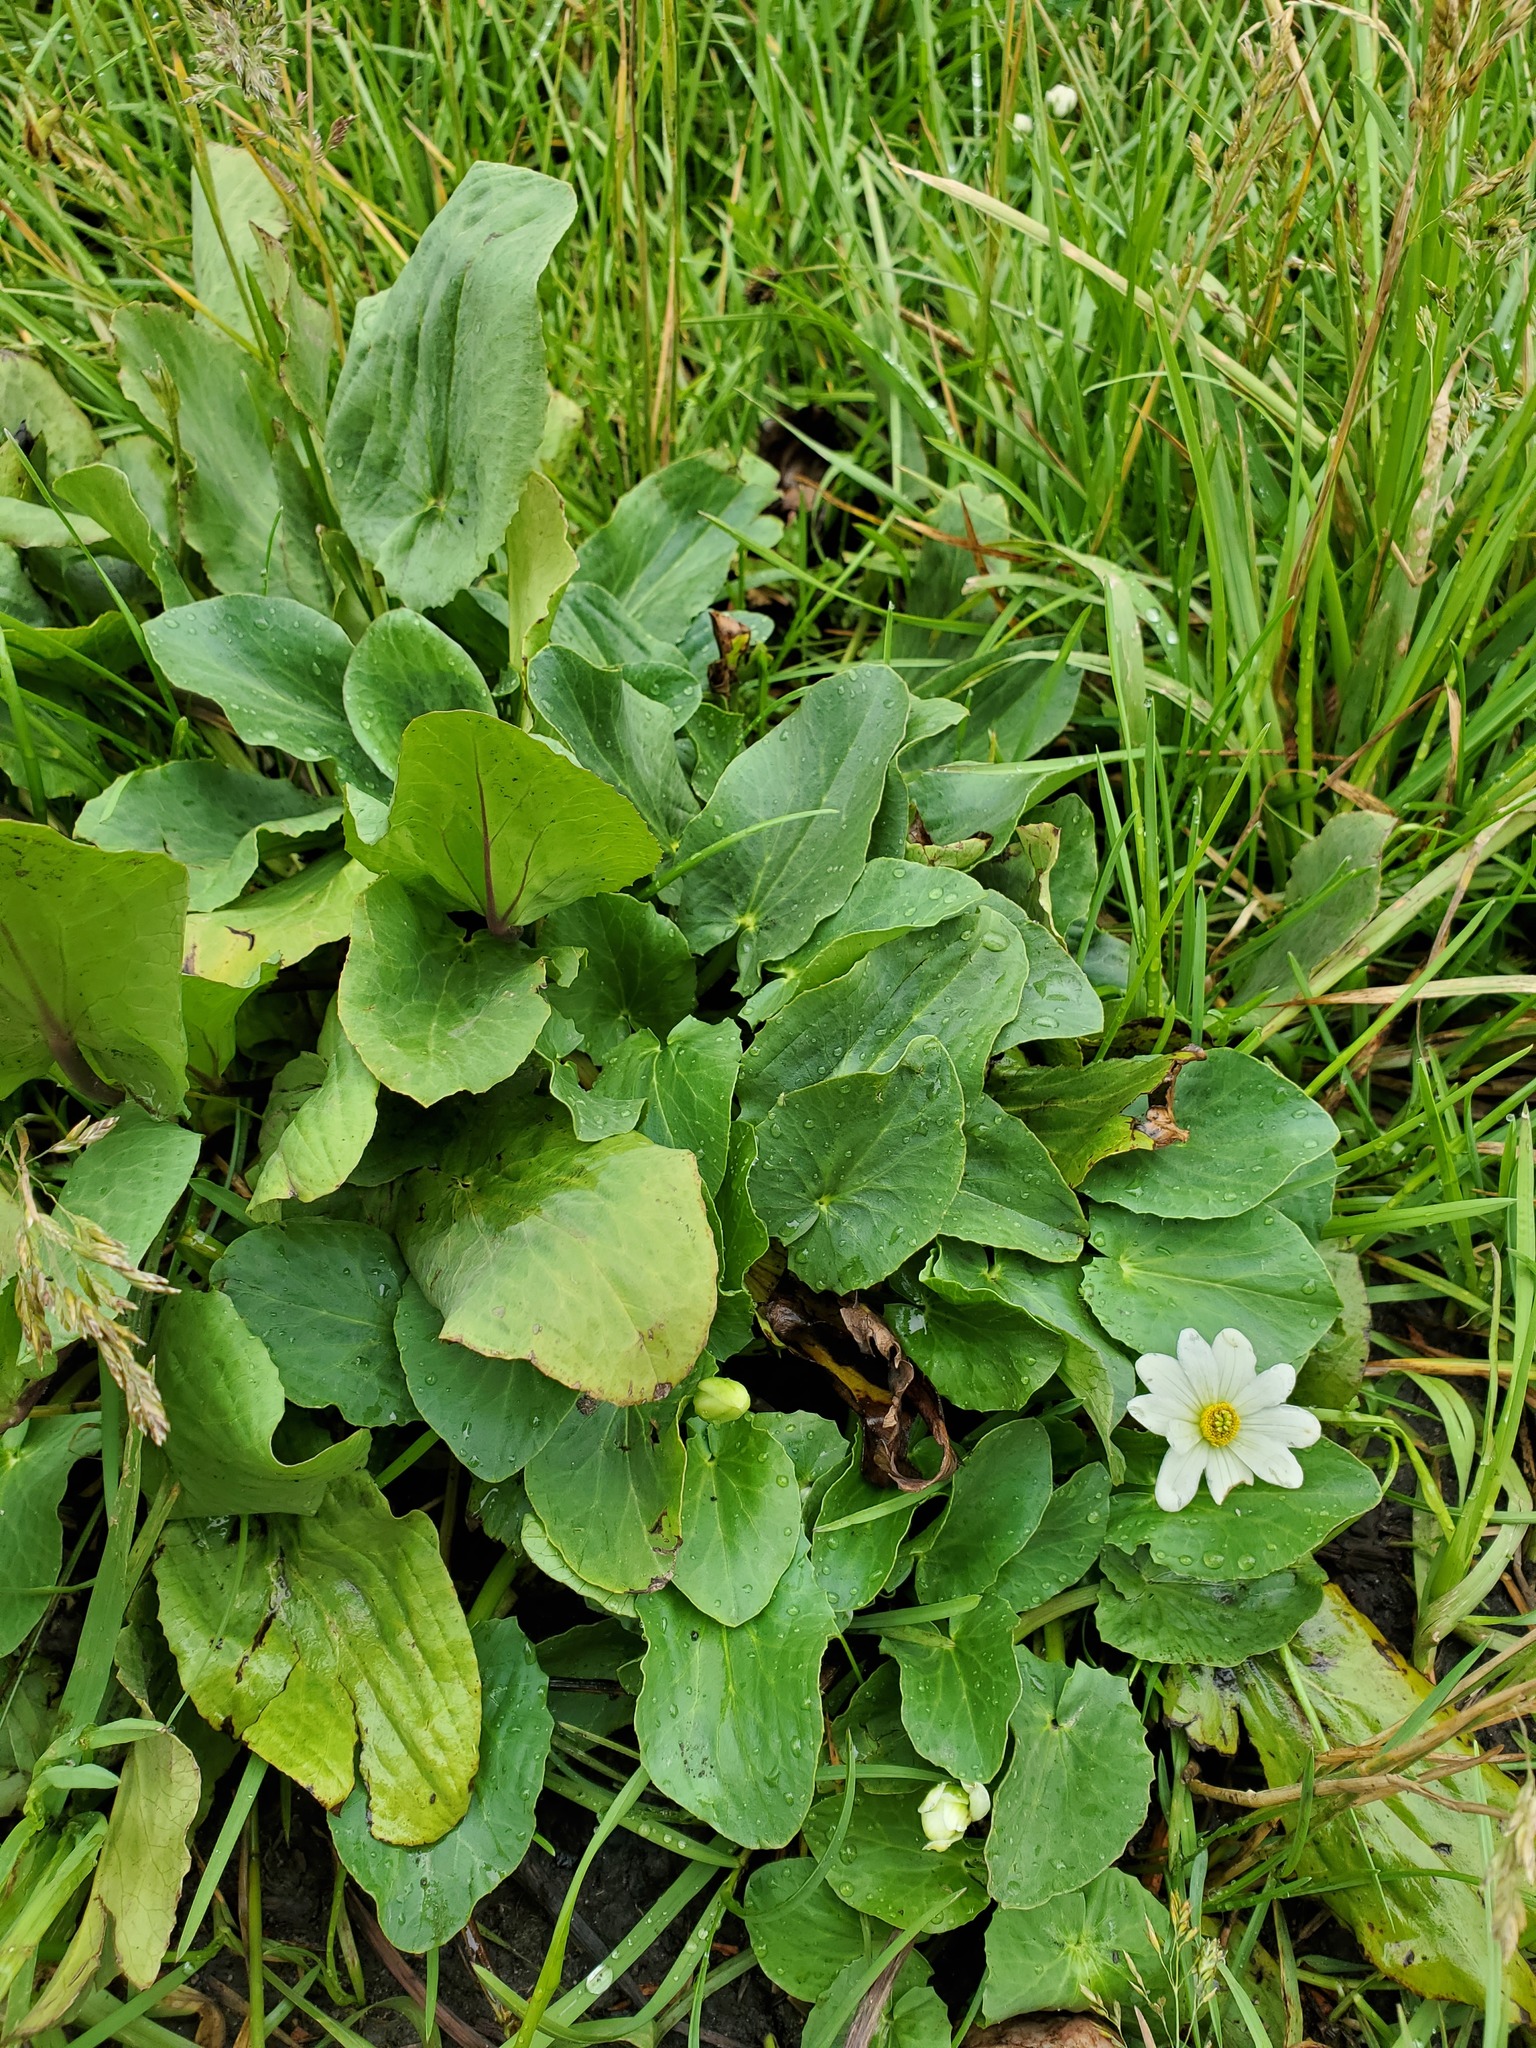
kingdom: Plantae
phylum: Tracheophyta
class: Magnoliopsida
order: Ranunculales
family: Ranunculaceae
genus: Caltha
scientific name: Caltha leptosepala
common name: Elkslip
